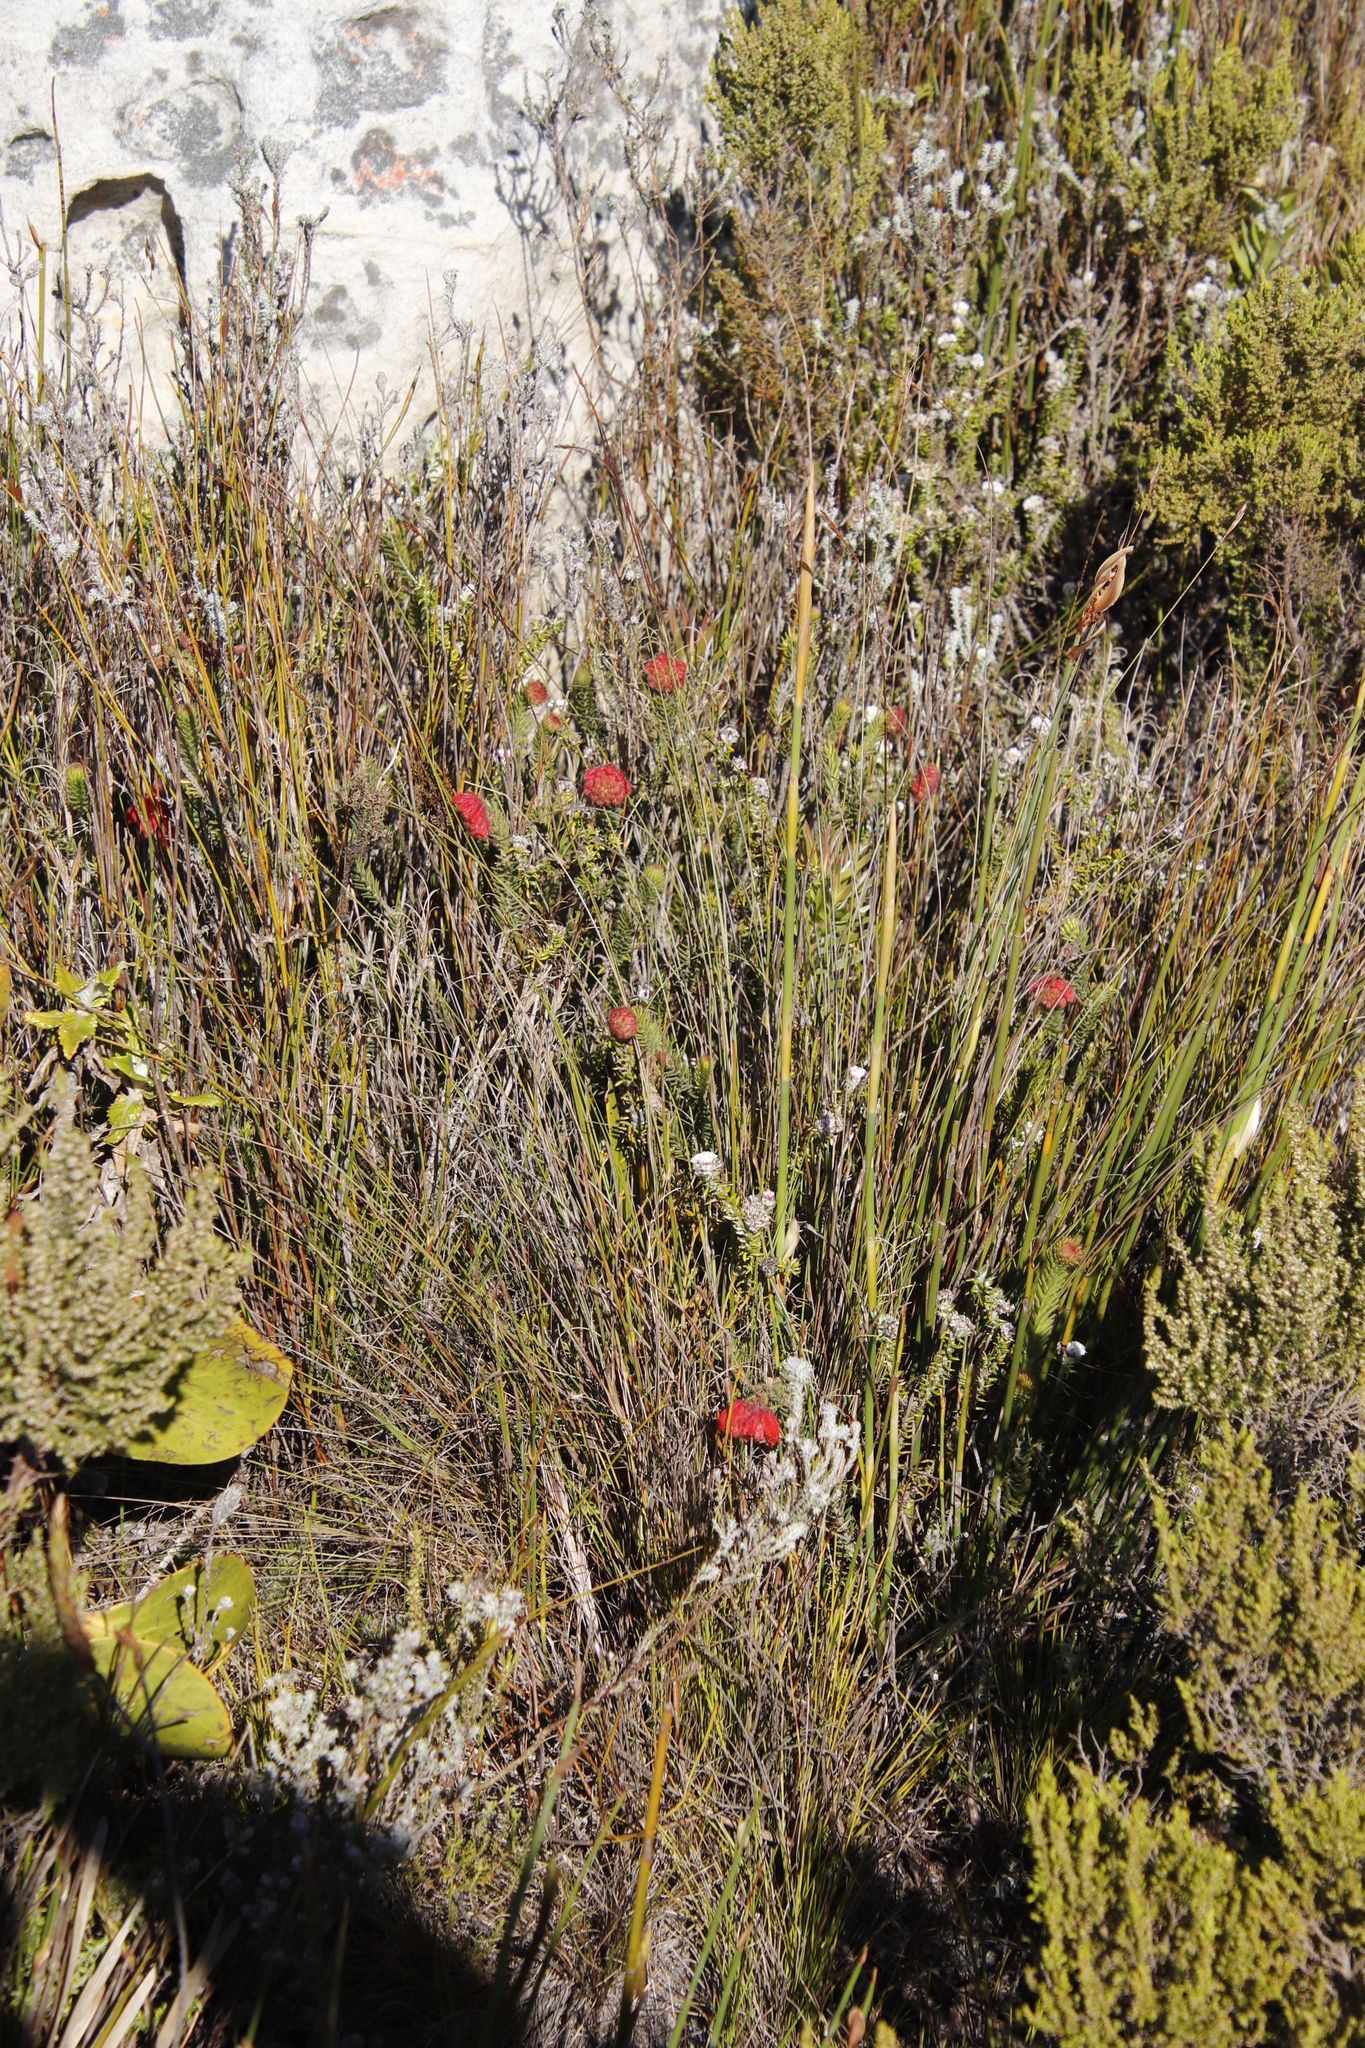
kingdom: Plantae
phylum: Tracheophyta
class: Magnoliopsida
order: Ericales
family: Ericaceae
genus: Erica
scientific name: Erica cerinthoides
